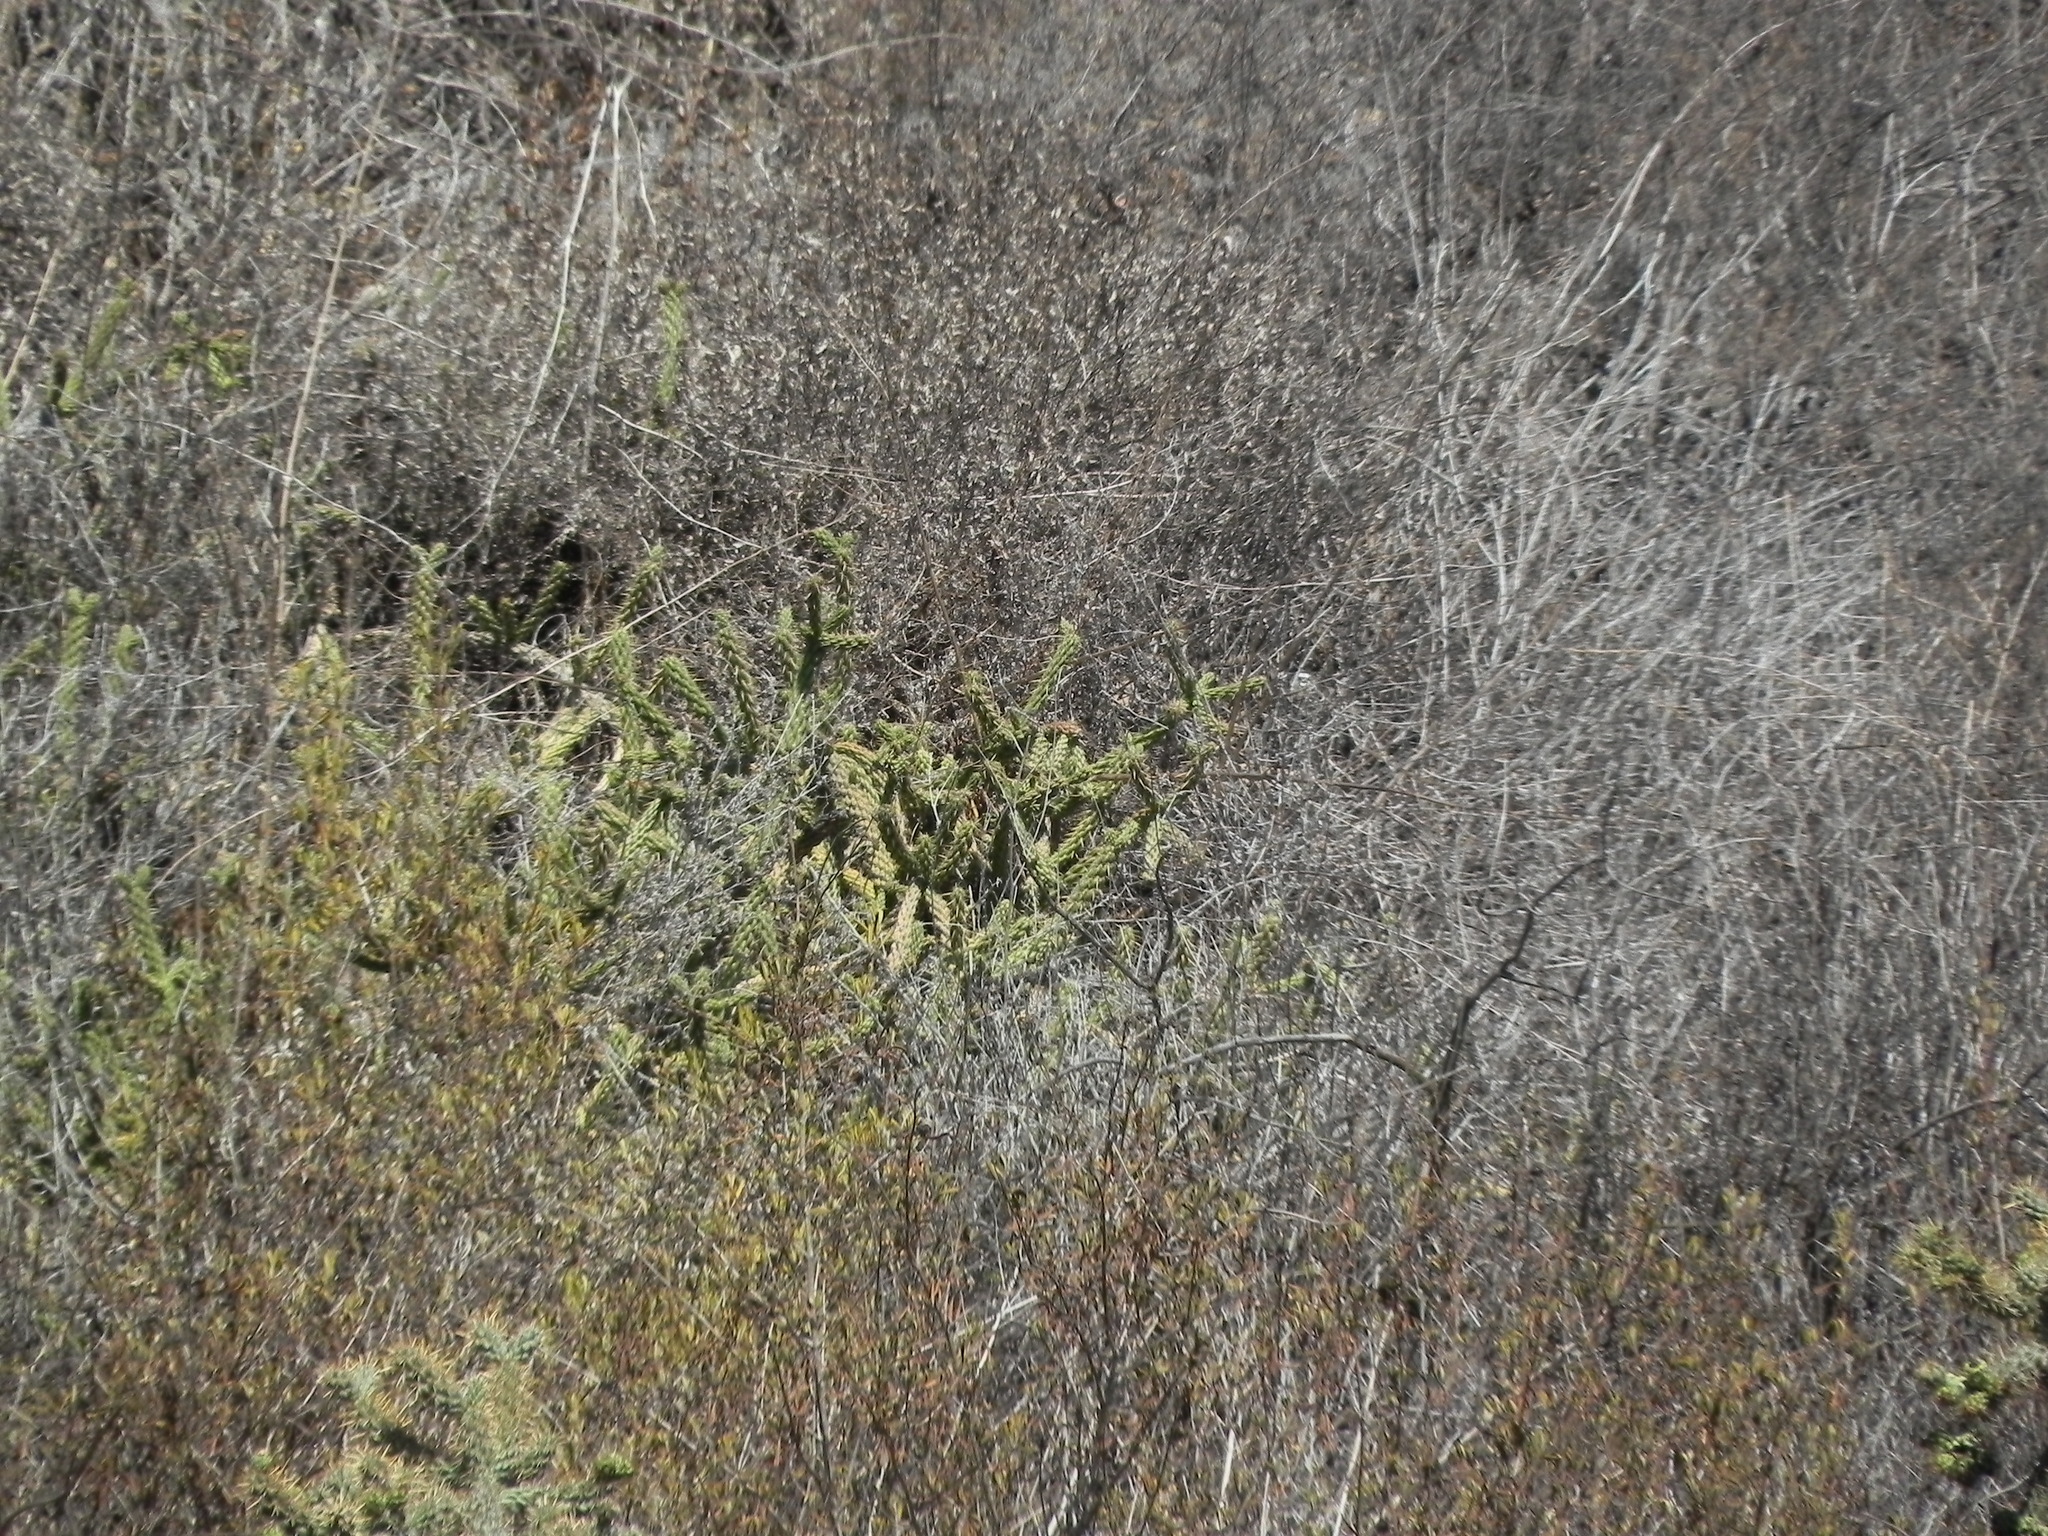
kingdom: Plantae
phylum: Tracheophyta
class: Magnoliopsida
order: Caryophyllales
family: Cactaceae
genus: Cylindropuntia
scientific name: Cylindropuntia californica
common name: Snake cholla
